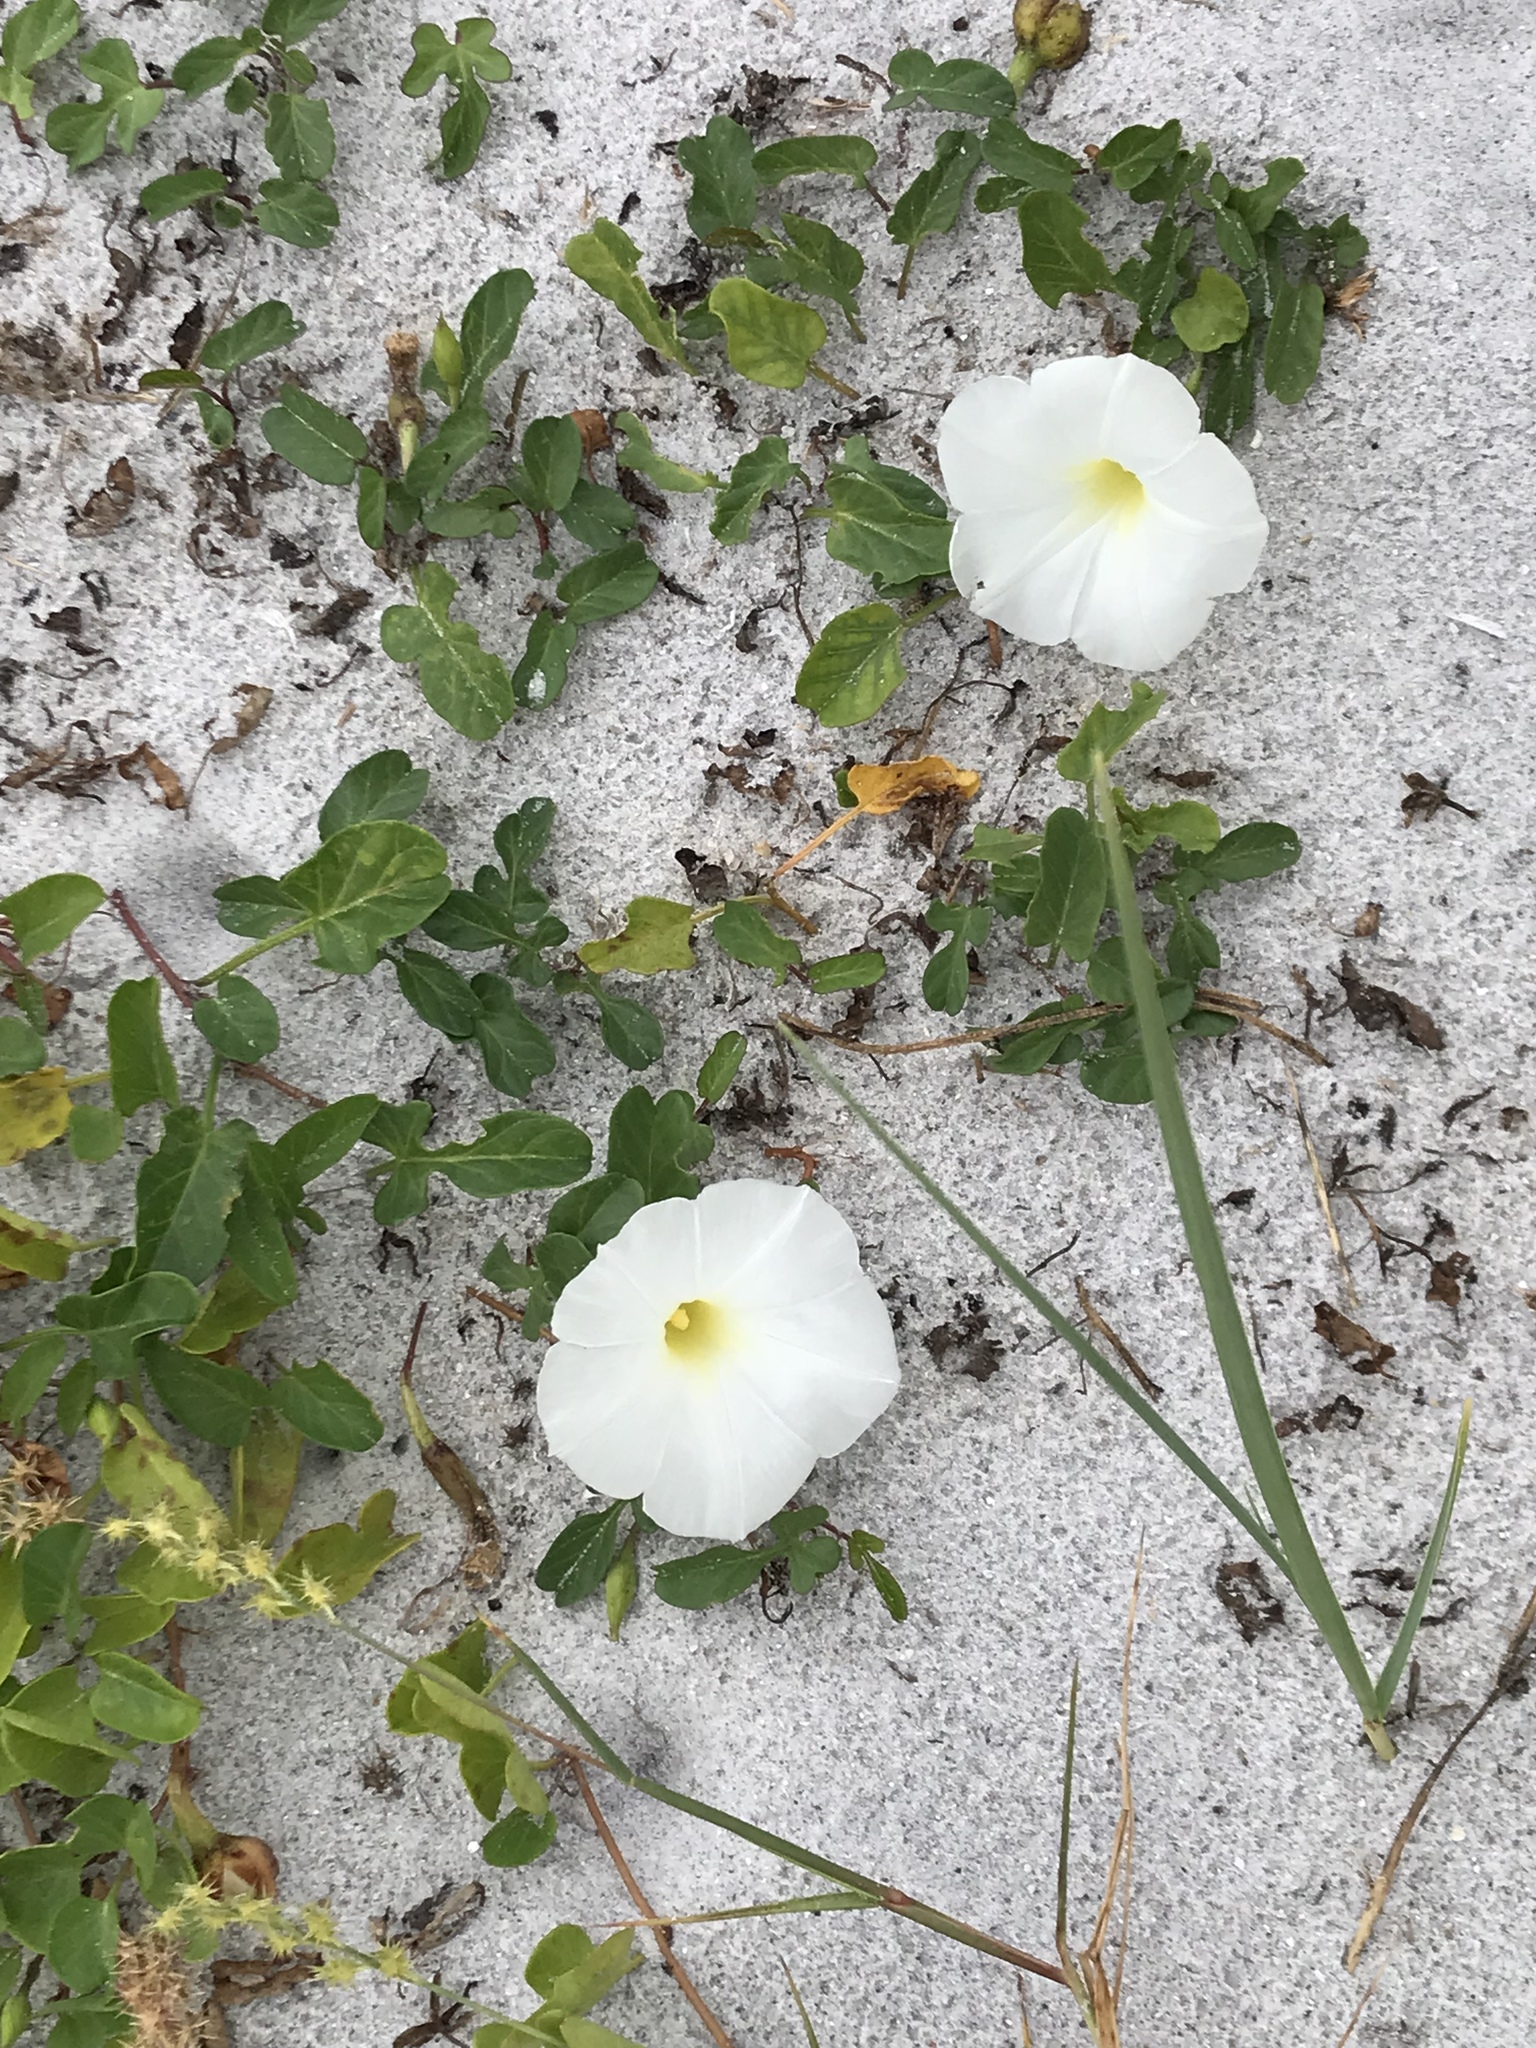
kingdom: Plantae
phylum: Tracheophyta
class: Magnoliopsida
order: Solanales
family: Convolvulaceae
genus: Ipomoea
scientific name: Ipomoea imperati
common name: Fiddle-leaf morning-glory
